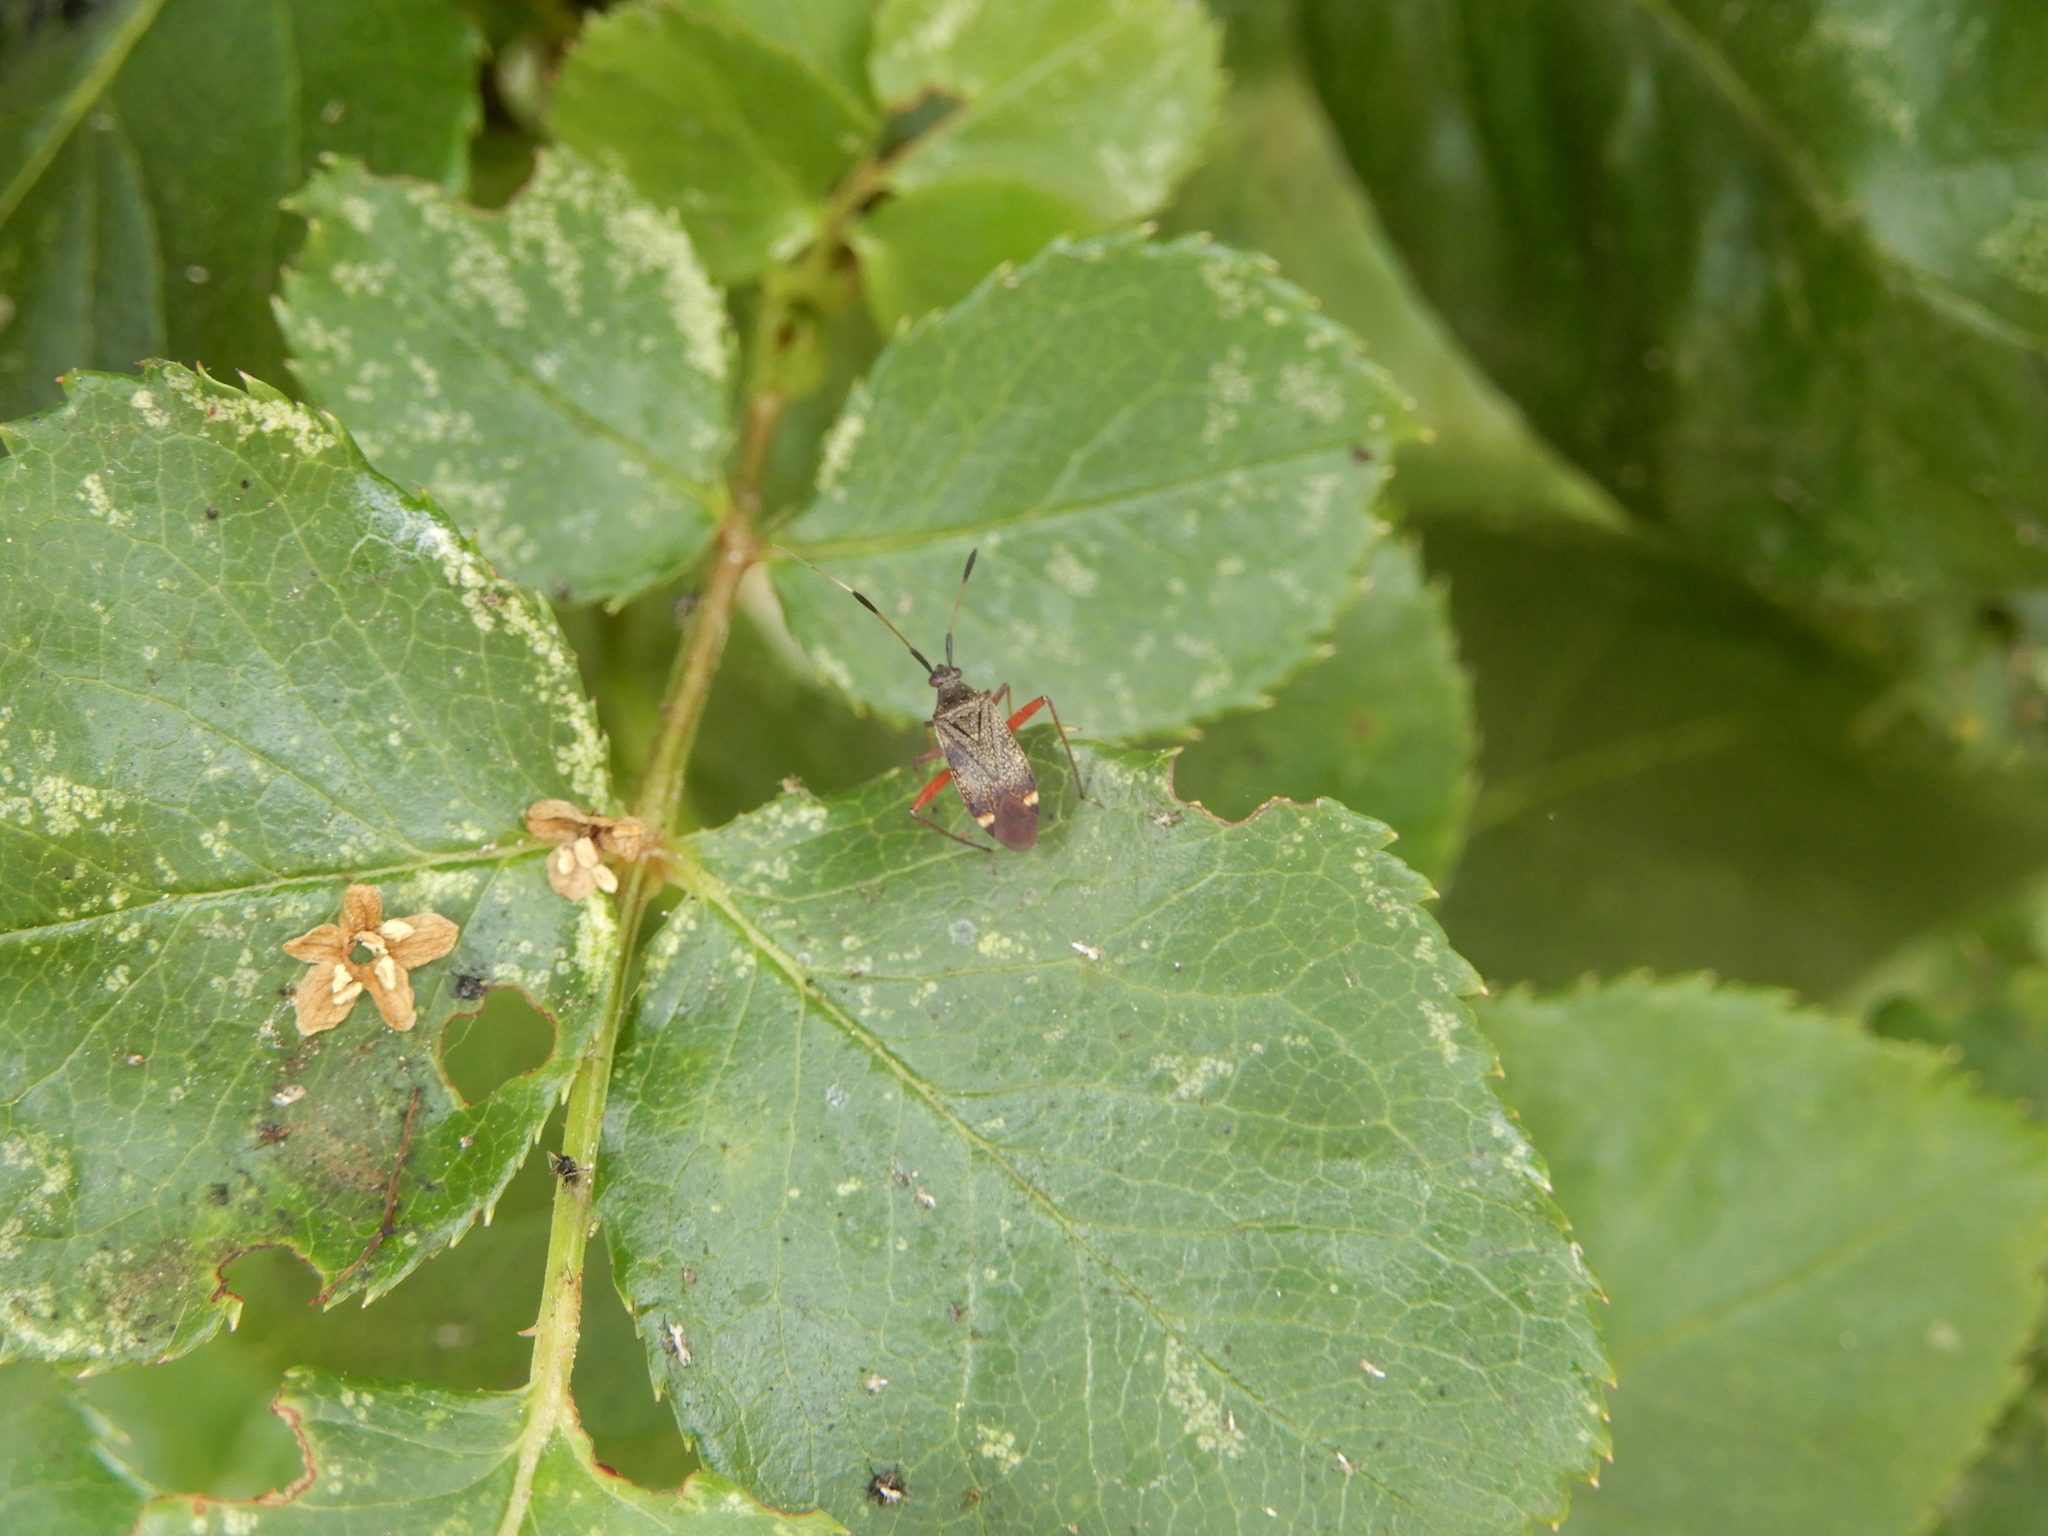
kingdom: Animalia
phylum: Arthropoda
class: Insecta
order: Hemiptera
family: Miridae
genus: Closterotomus
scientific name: Closterotomus biclavatus
